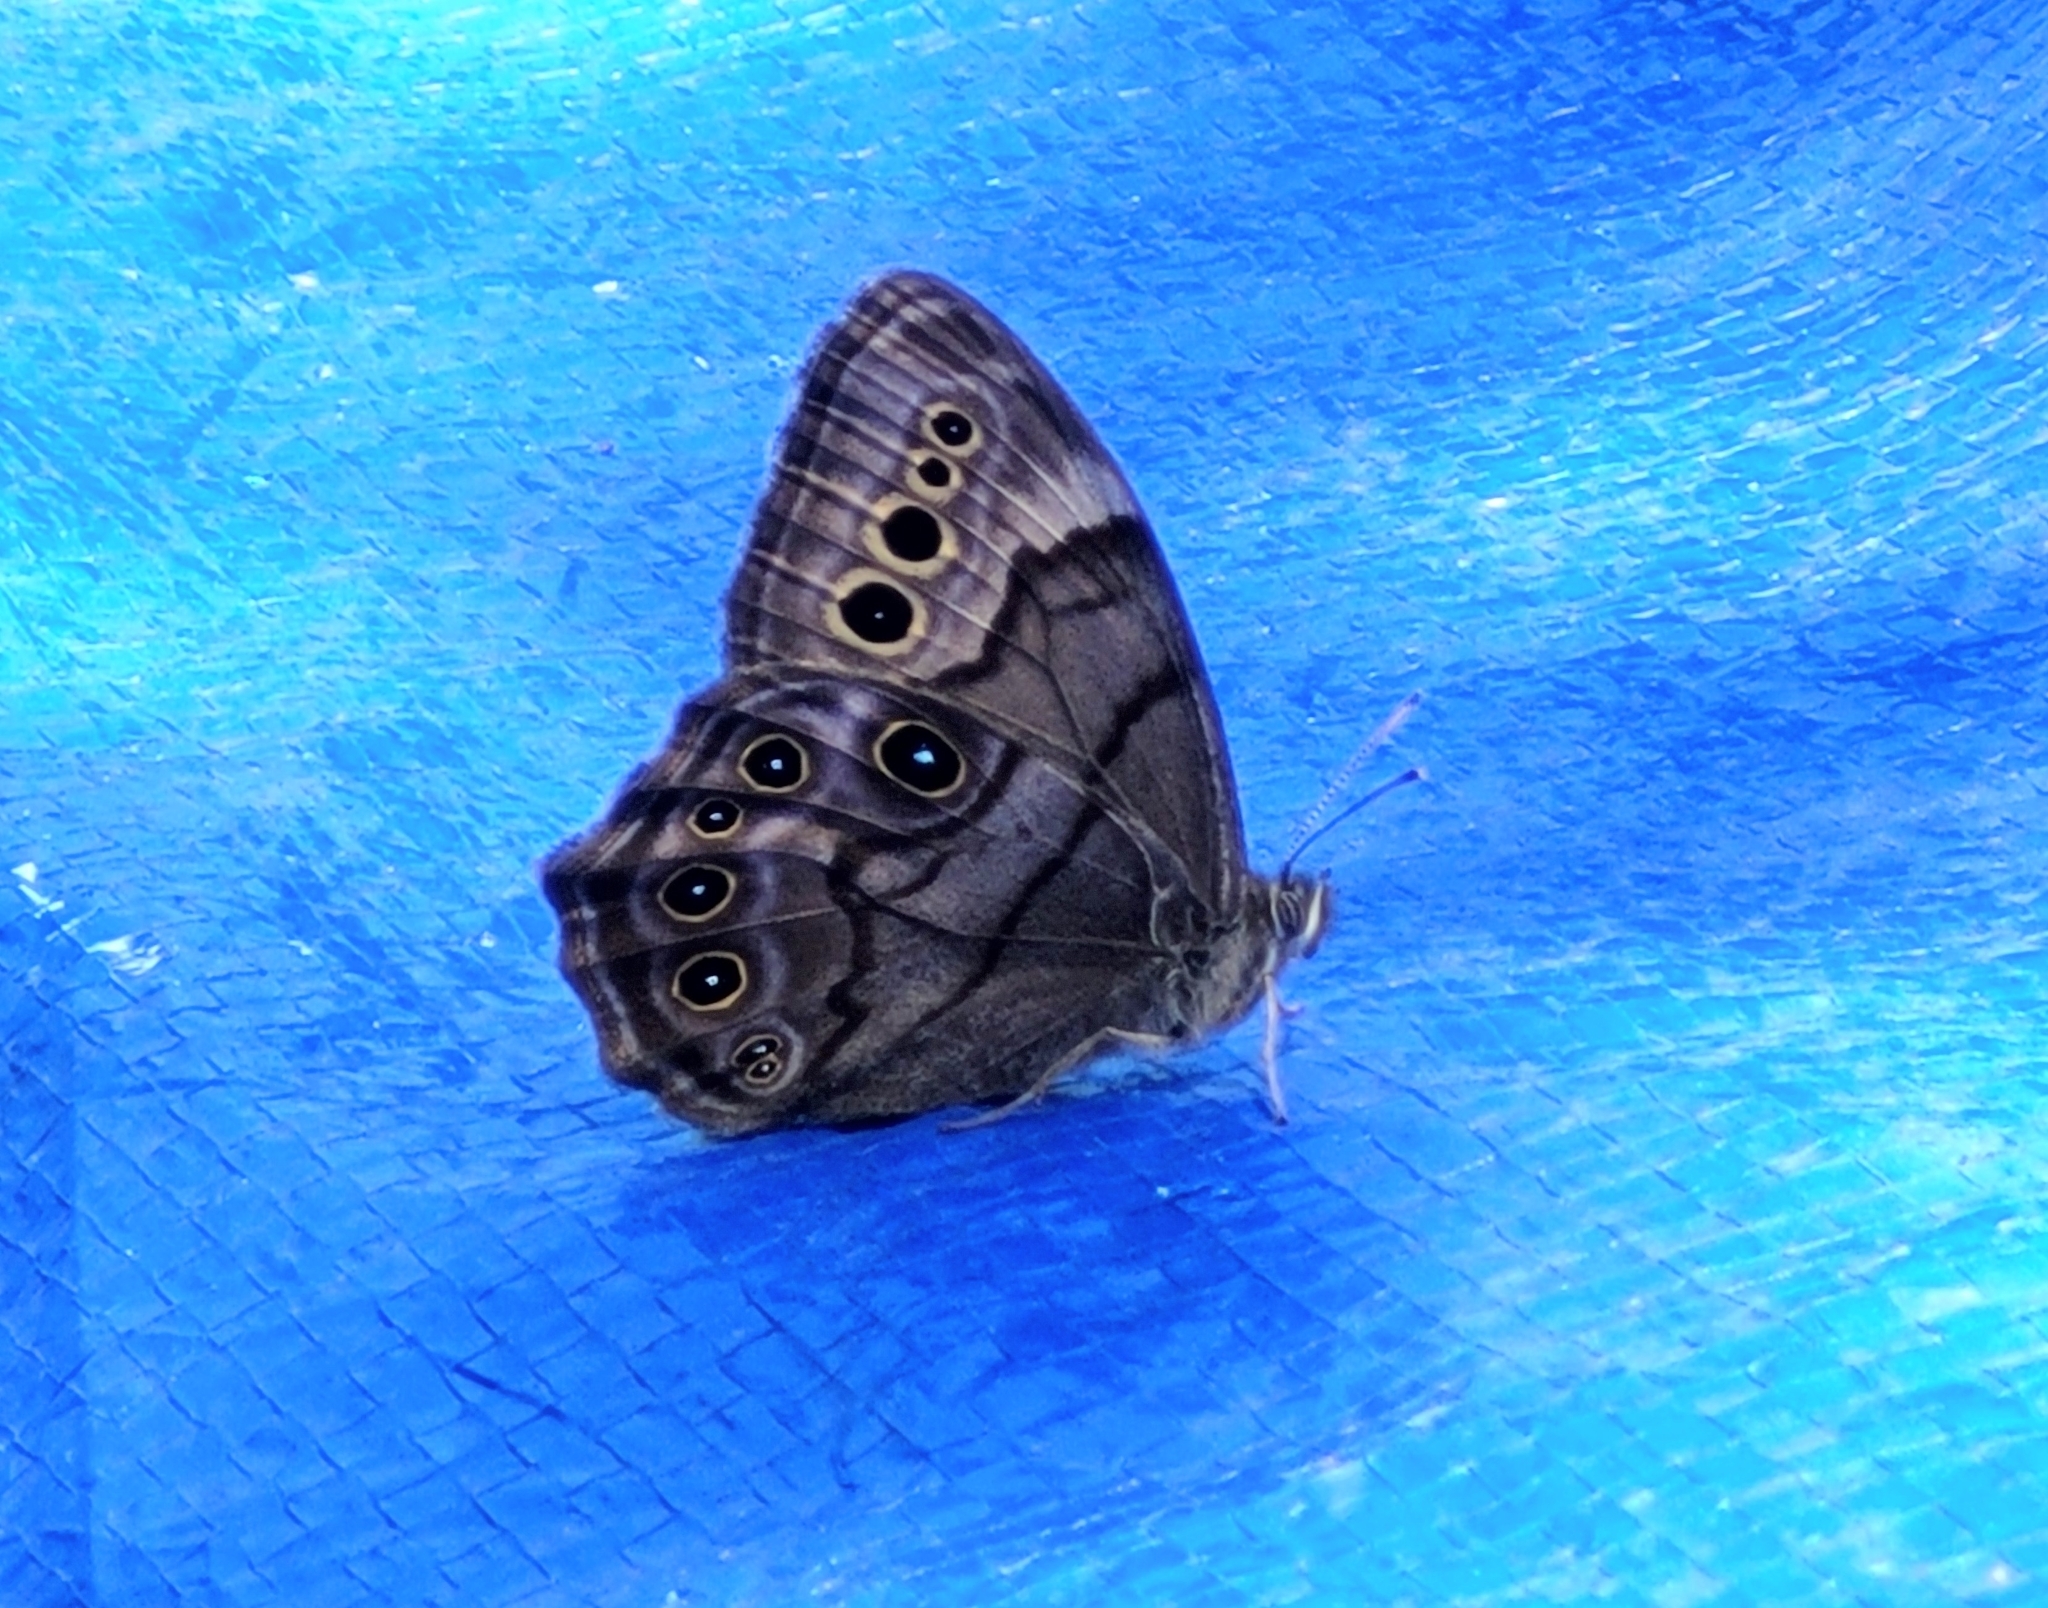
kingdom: Animalia
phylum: Arthropoda
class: Insecta
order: Lepidoptera
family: Nymphalidae
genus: Lethe
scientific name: Lethe anthedon
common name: Northern pearly-eye
